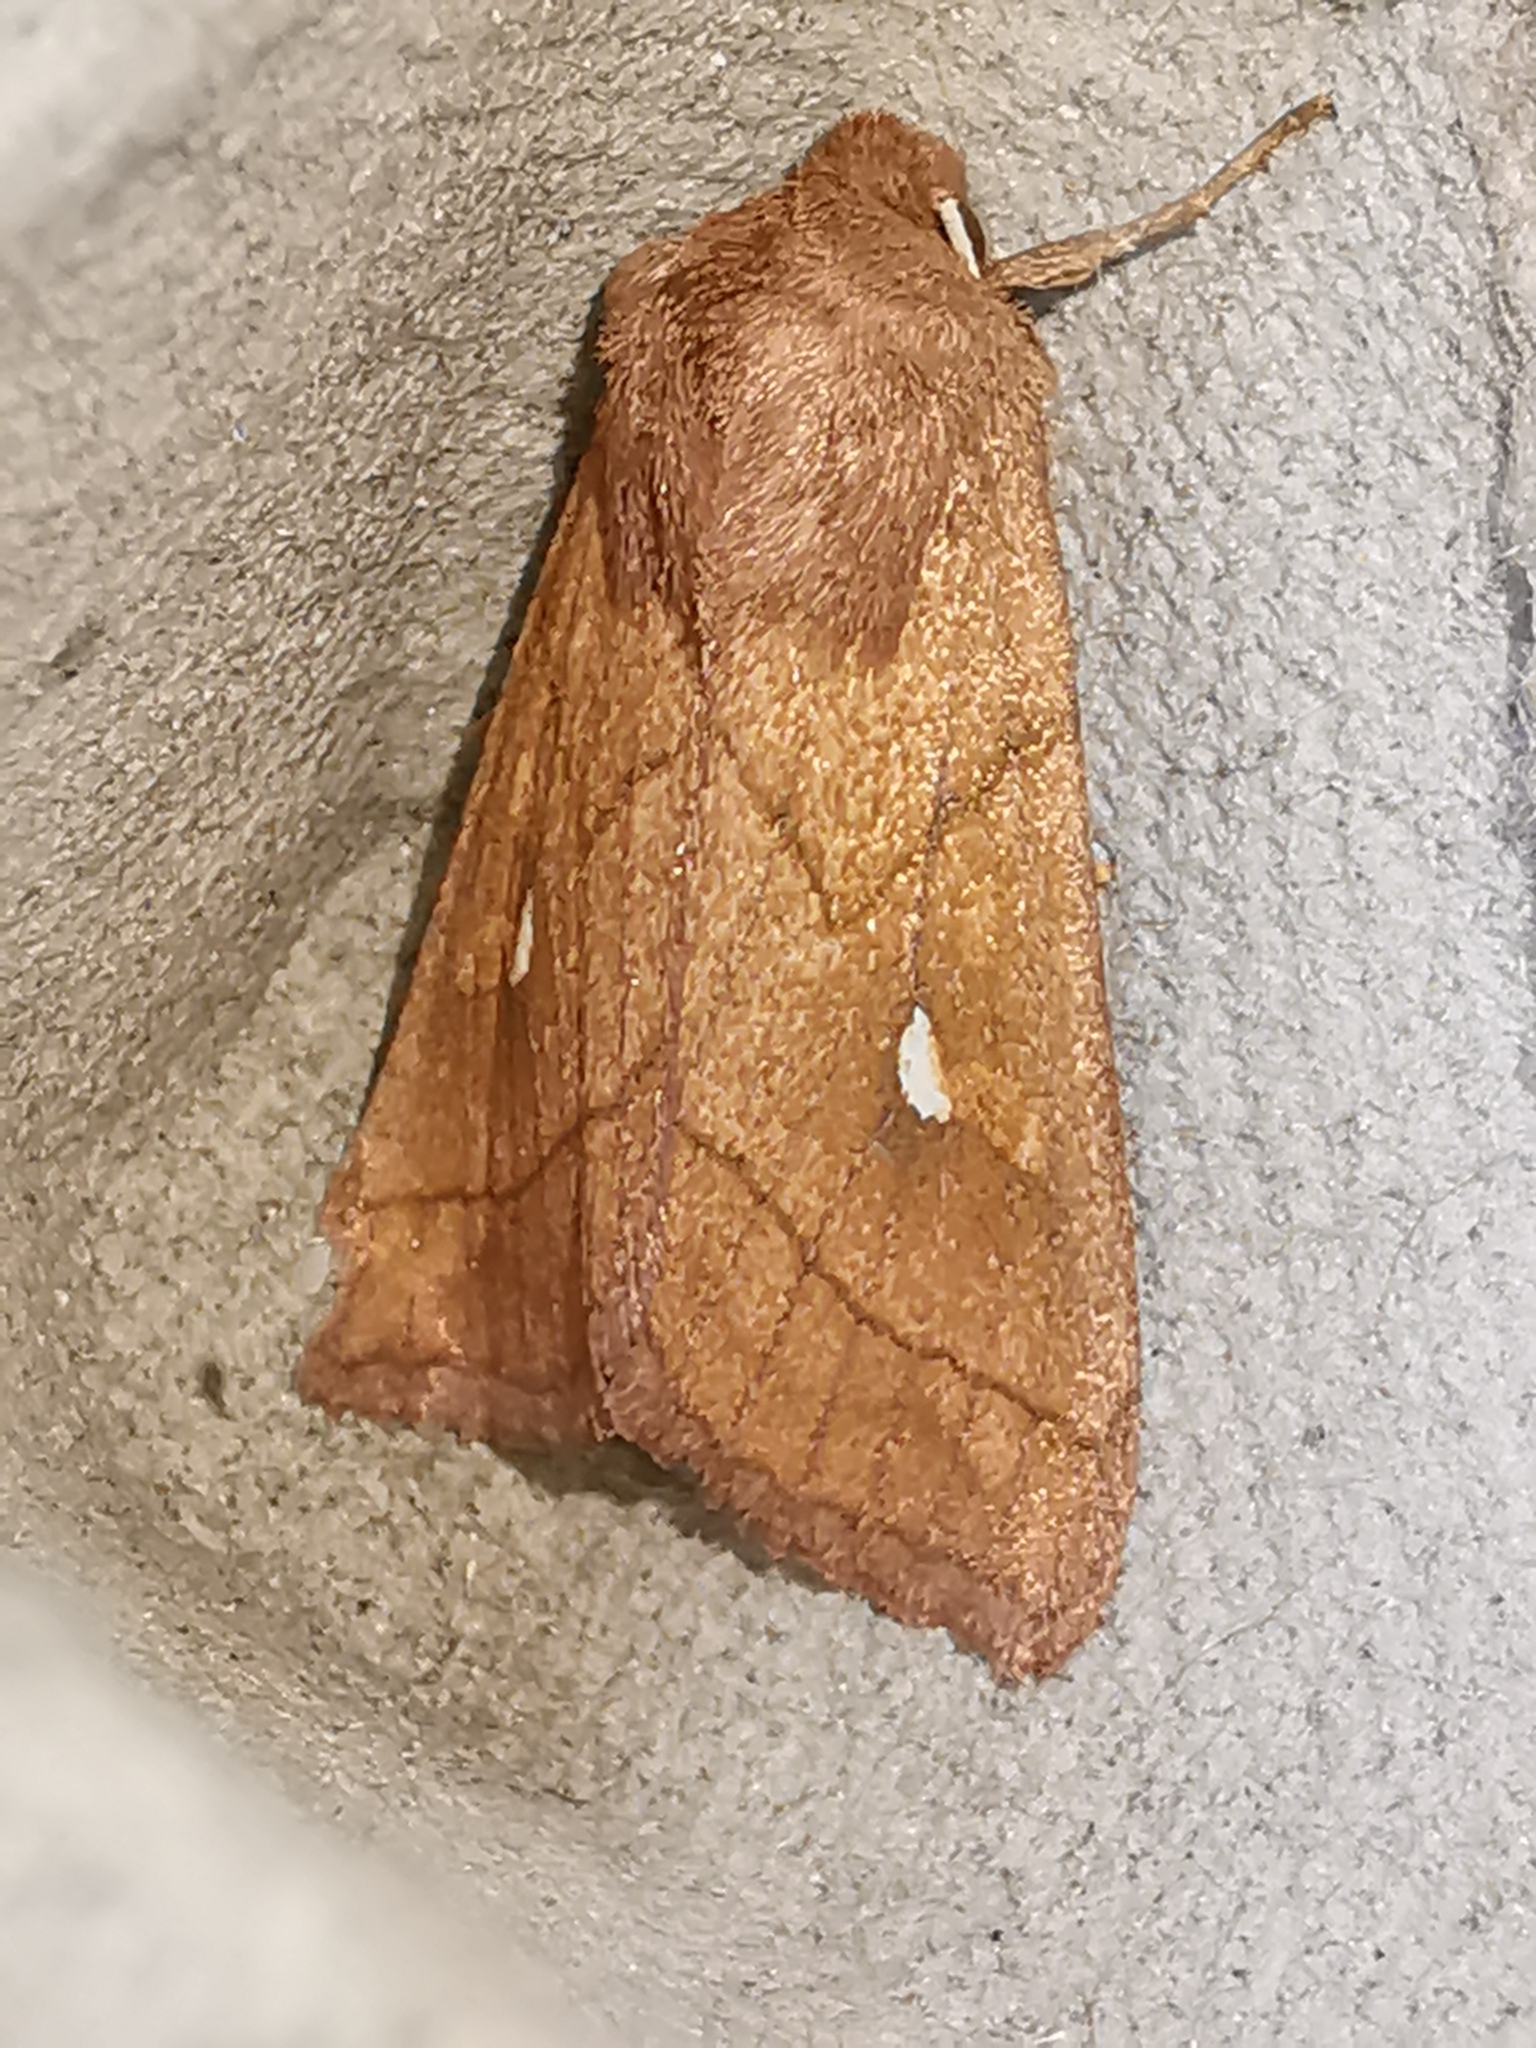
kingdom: Animalia
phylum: Arthropoda
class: Insecta
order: Lepidoptera
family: Noctuidae
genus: Mythimna
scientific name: Mythimna conigera
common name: Brown-line bright-eye
